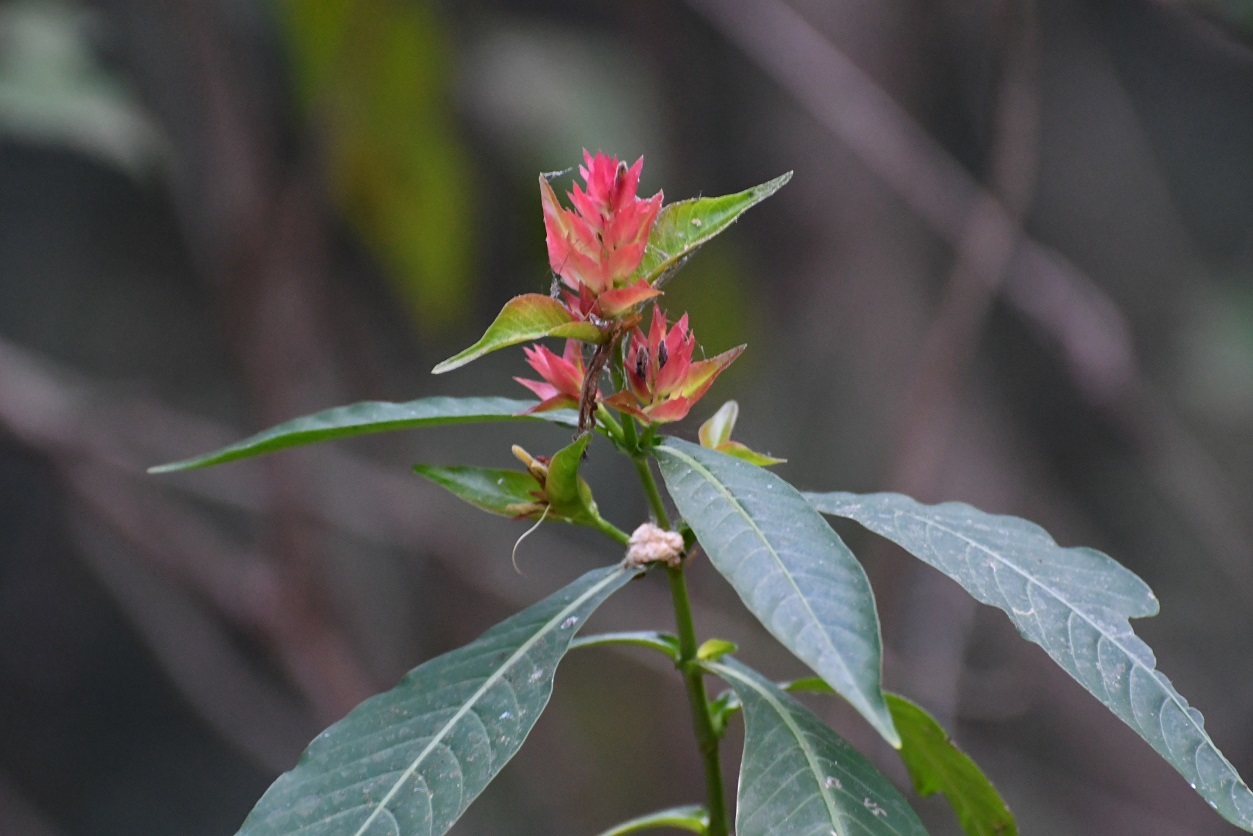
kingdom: Plantae
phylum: Tracheophyta
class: Magnoliopsida
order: Lamiales
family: Acanthaceae
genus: Justicia
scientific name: Justicia mirandae
